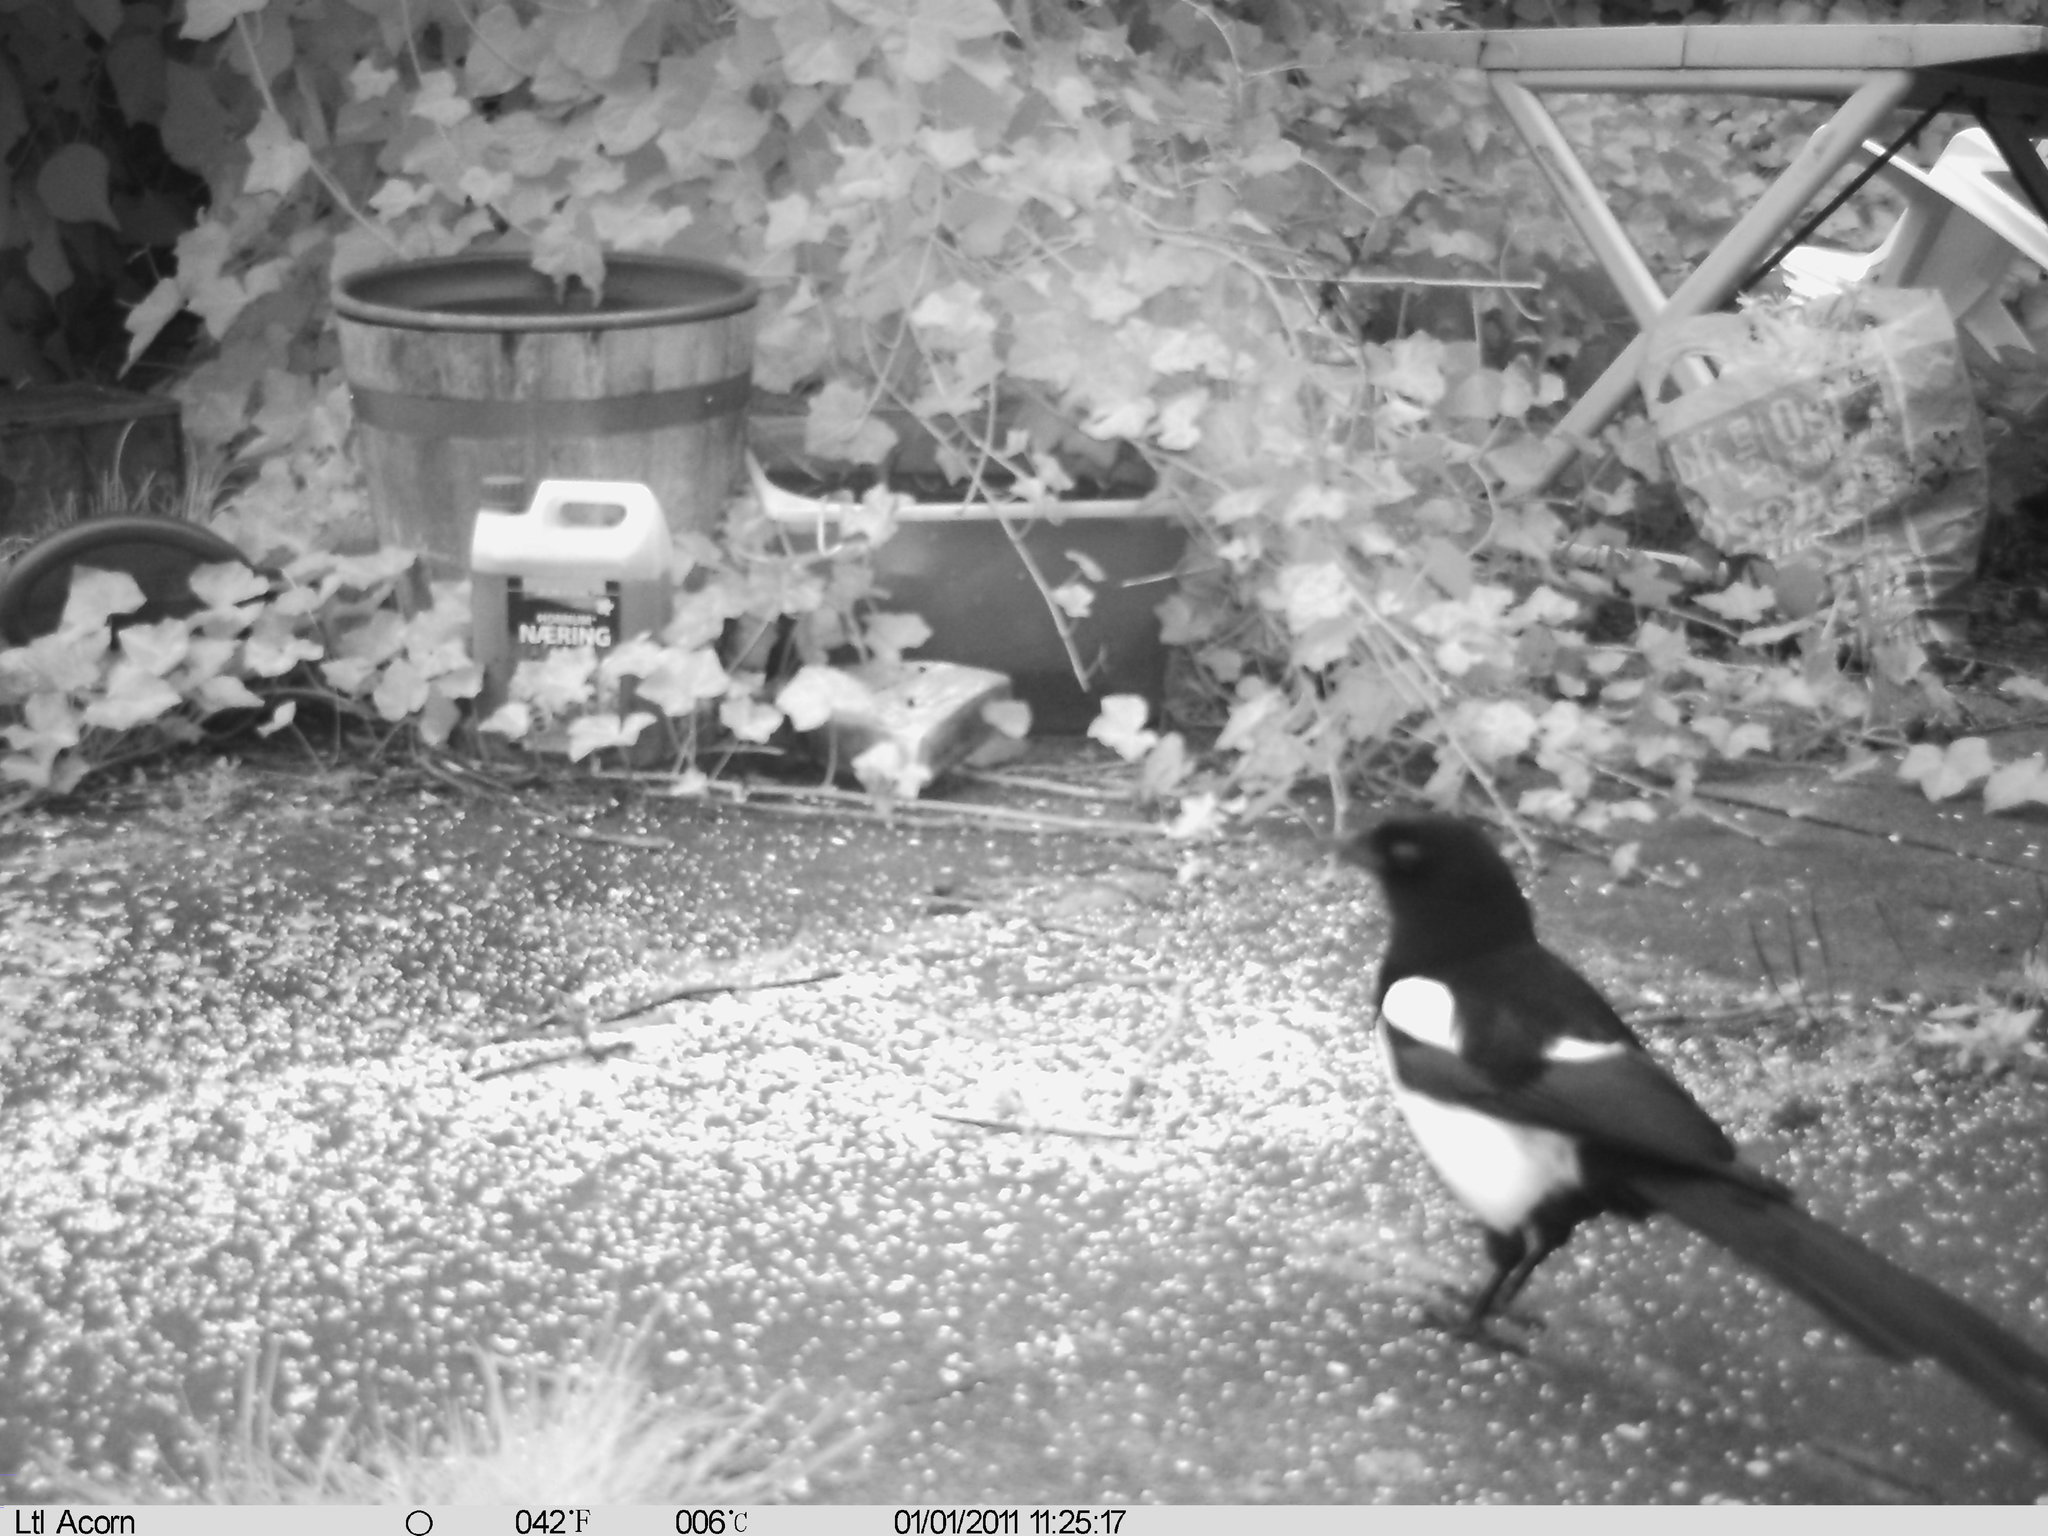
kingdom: Animalia
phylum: Chordata
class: Aves
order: Passeriformes
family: Corvidae
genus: Pica
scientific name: Pica pica
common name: Eurasian magpie
